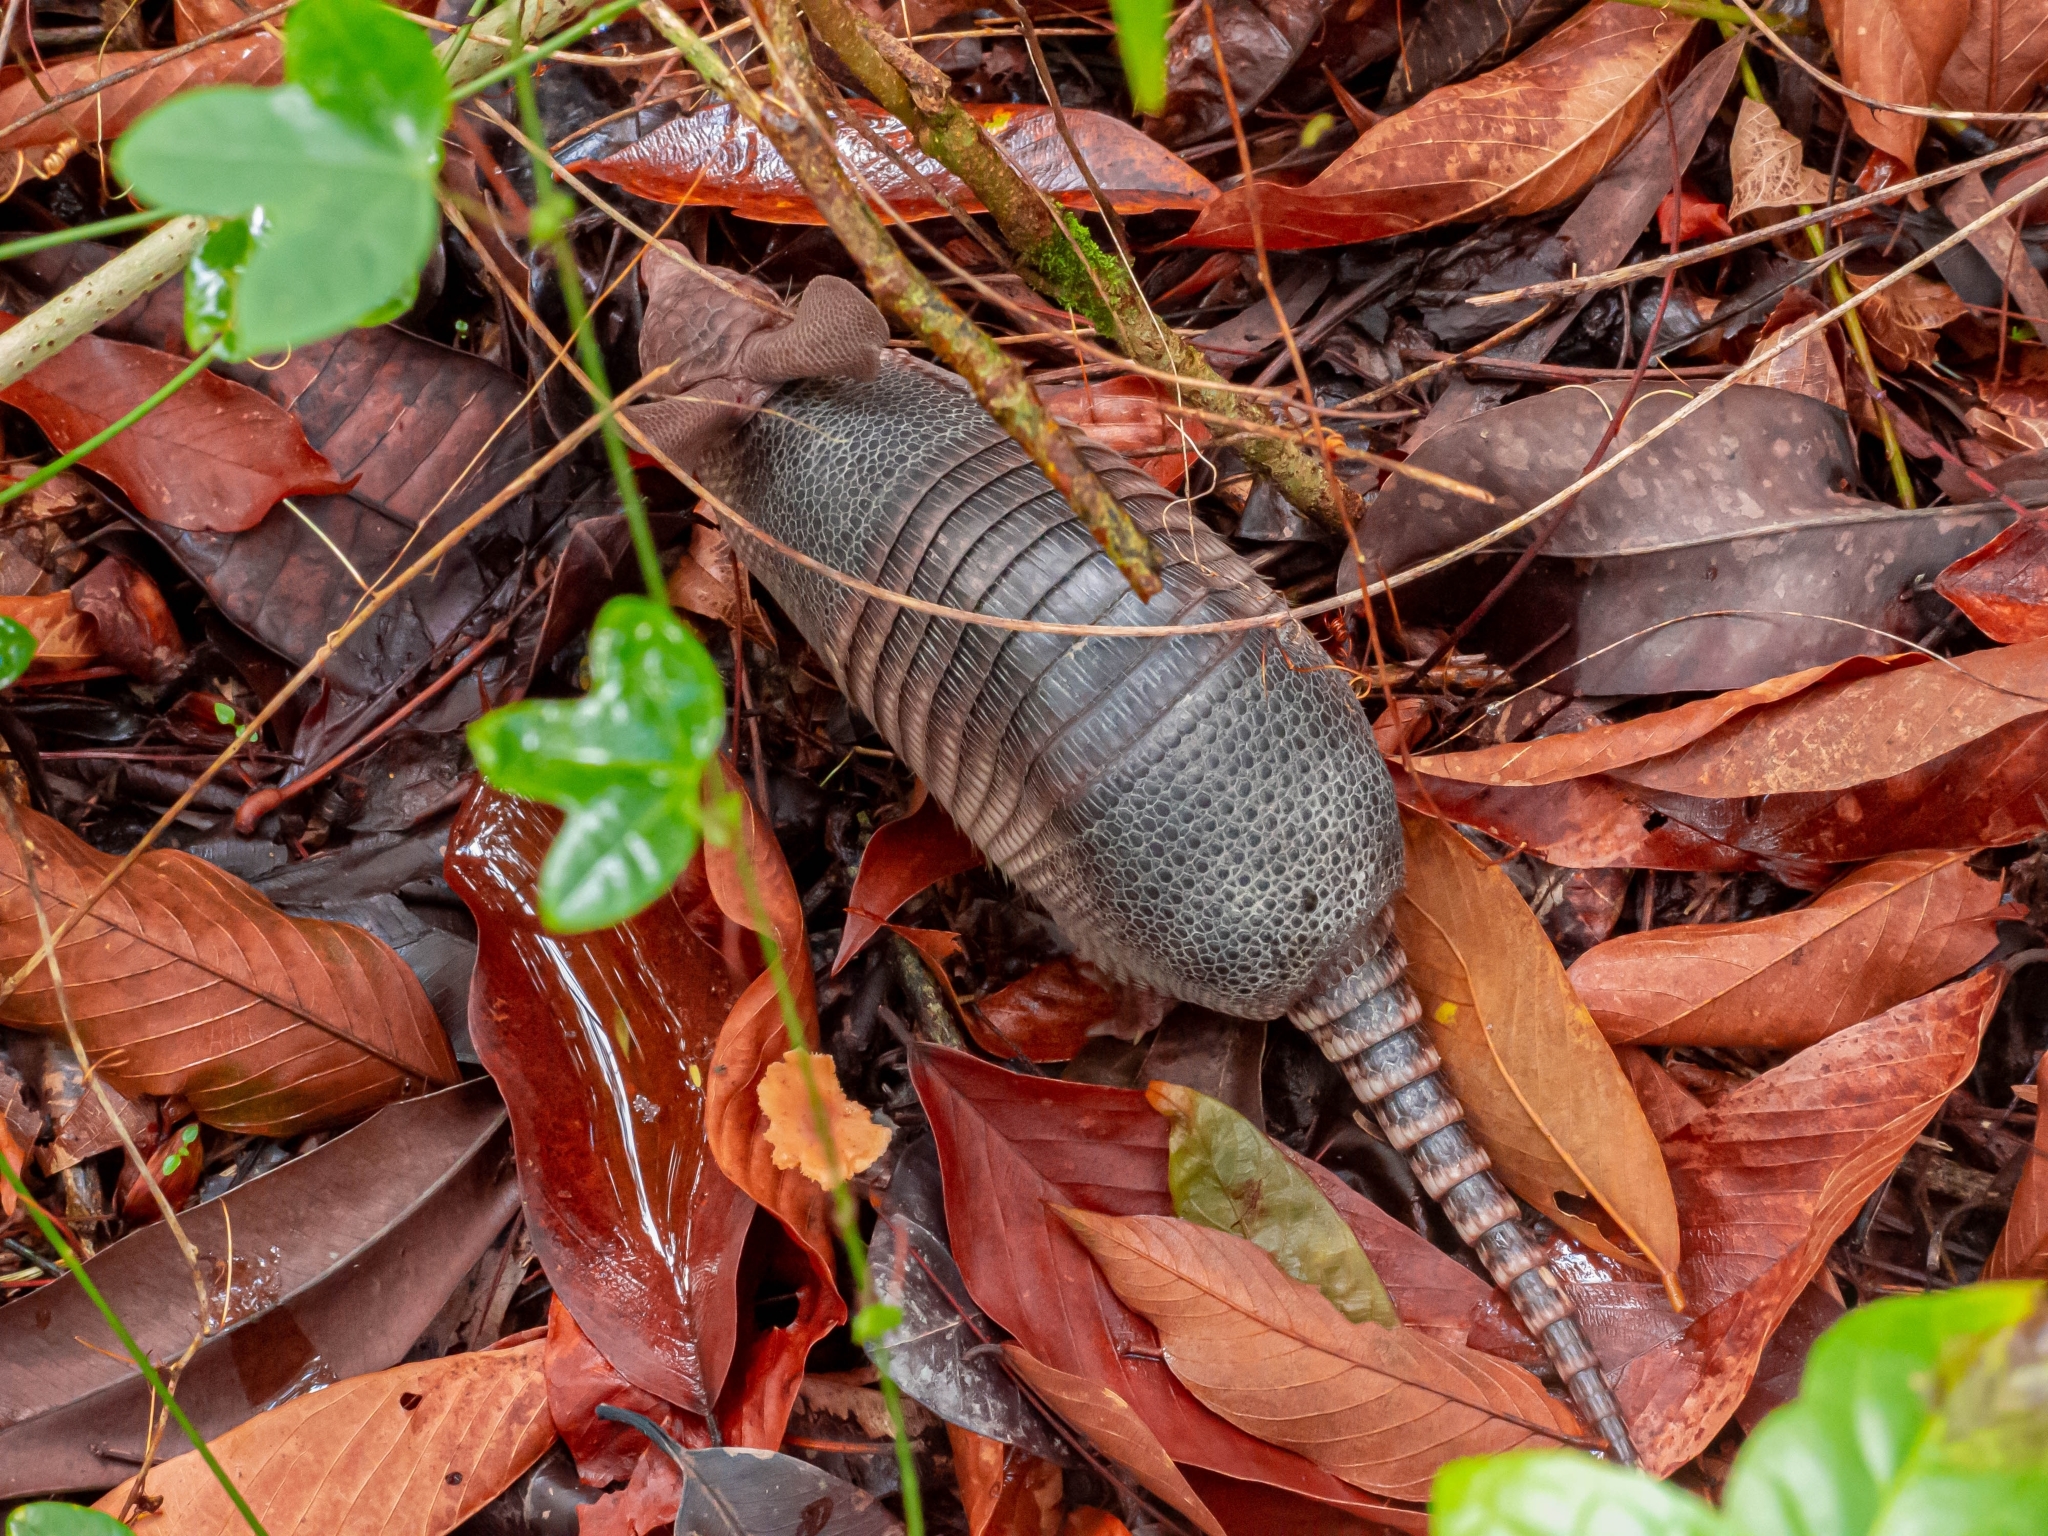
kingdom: Animalia
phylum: Chordata
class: Mammalia
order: Cingulata
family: Dasypodidae
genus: Dasypus
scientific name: Dasypus septemcinctus
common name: Seven-banded armadillo
